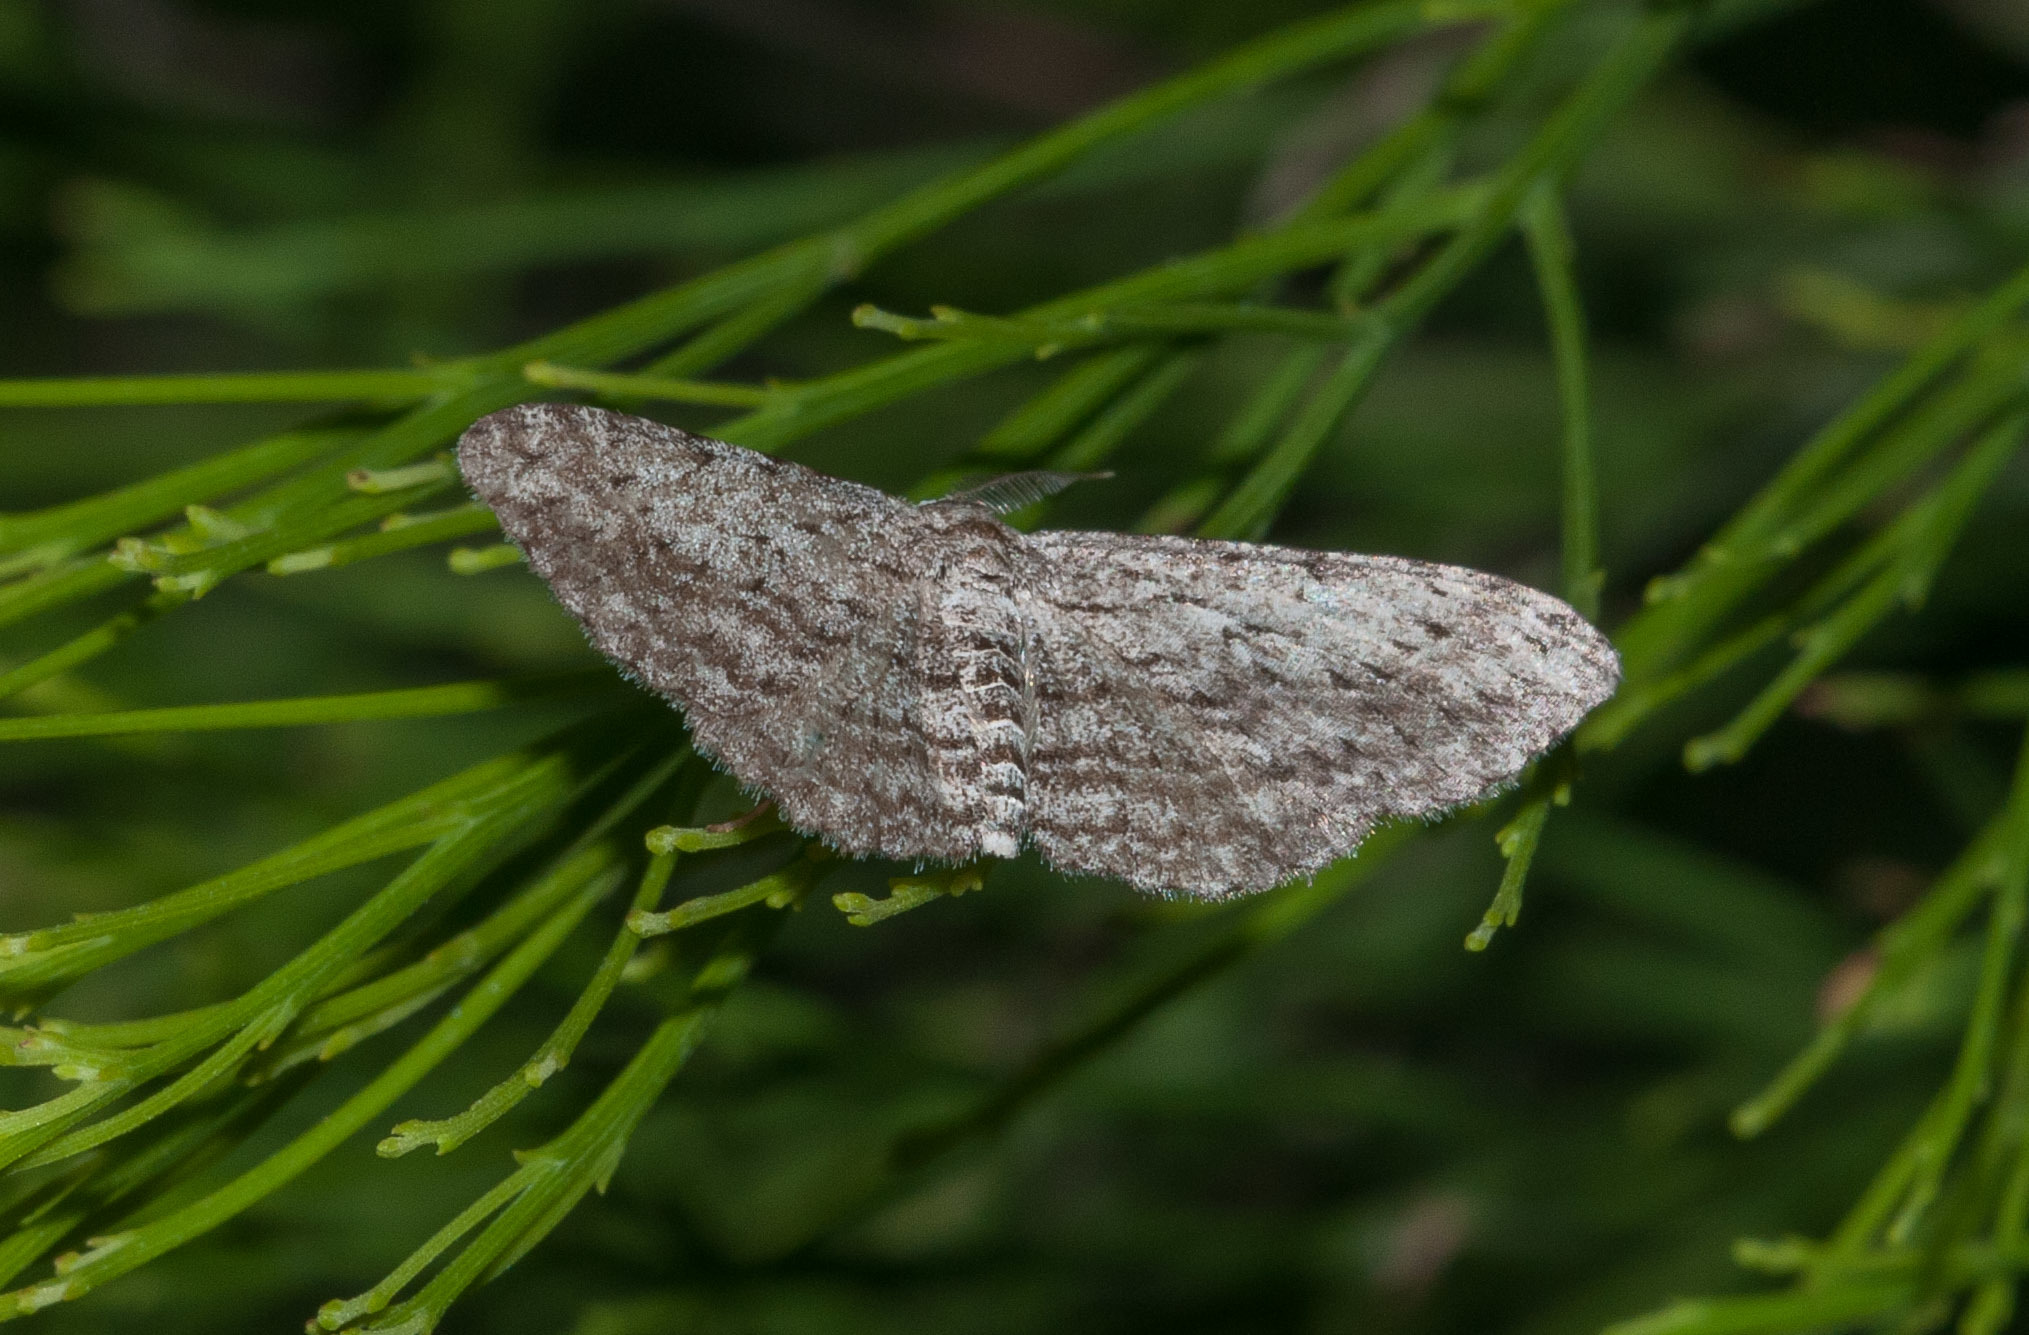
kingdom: Animalia
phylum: Arthropoda
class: Insecta
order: Lepidoptera
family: Geometridae
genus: Phelotis
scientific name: Phelotis cognata
